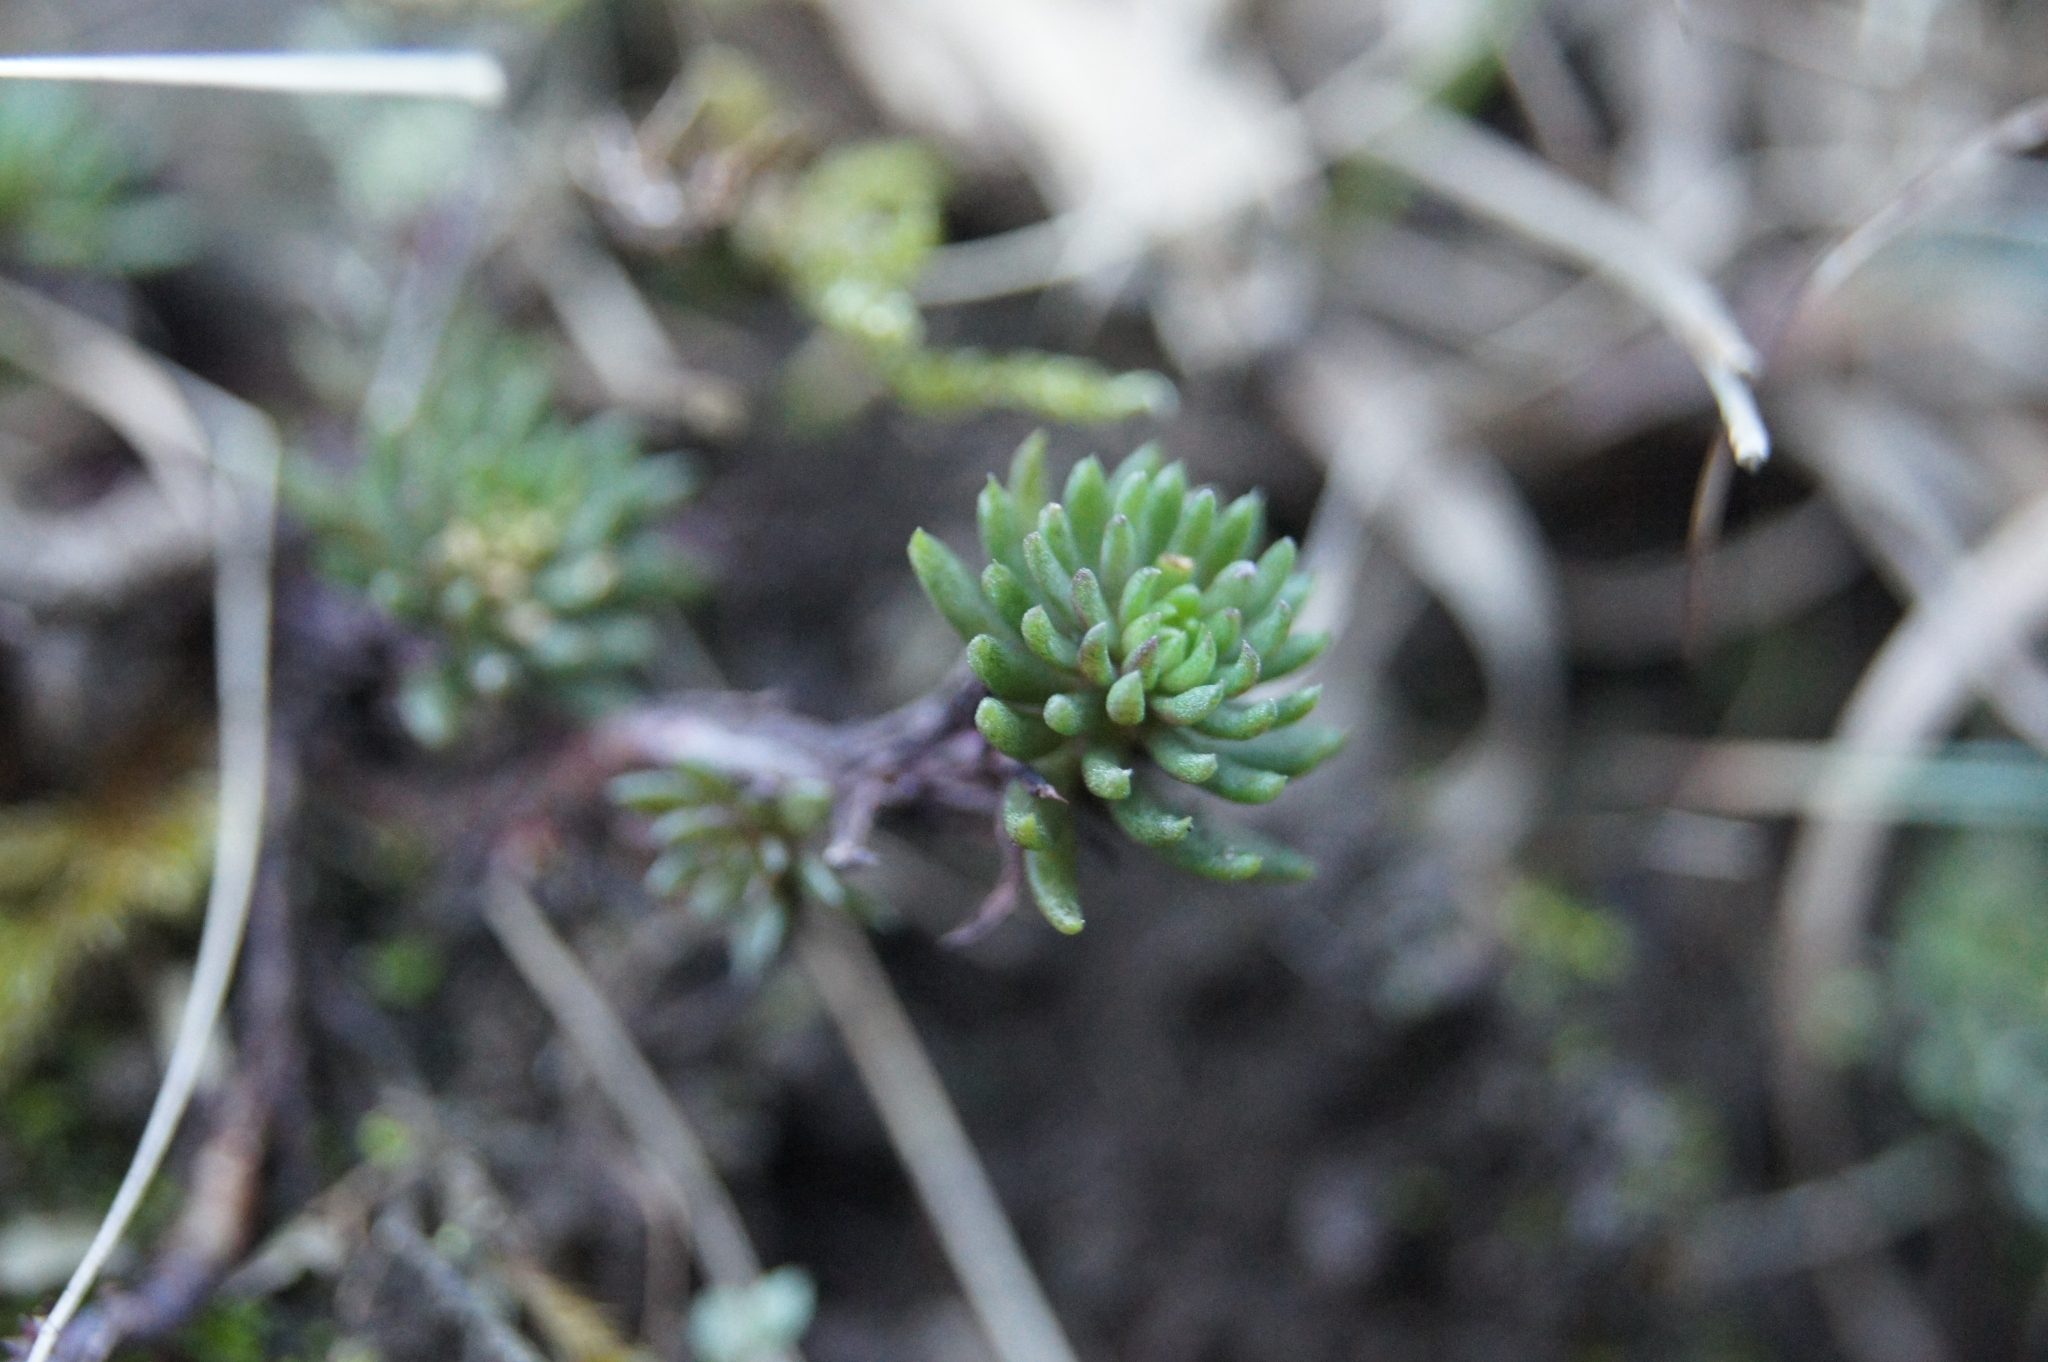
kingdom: Plantae
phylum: Tracheophyta
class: Magnoliopsida
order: Saxifragales
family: Crassulaceae
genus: Petrosedum
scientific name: Petrosedum forsterianum
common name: Forster's stonecrop
